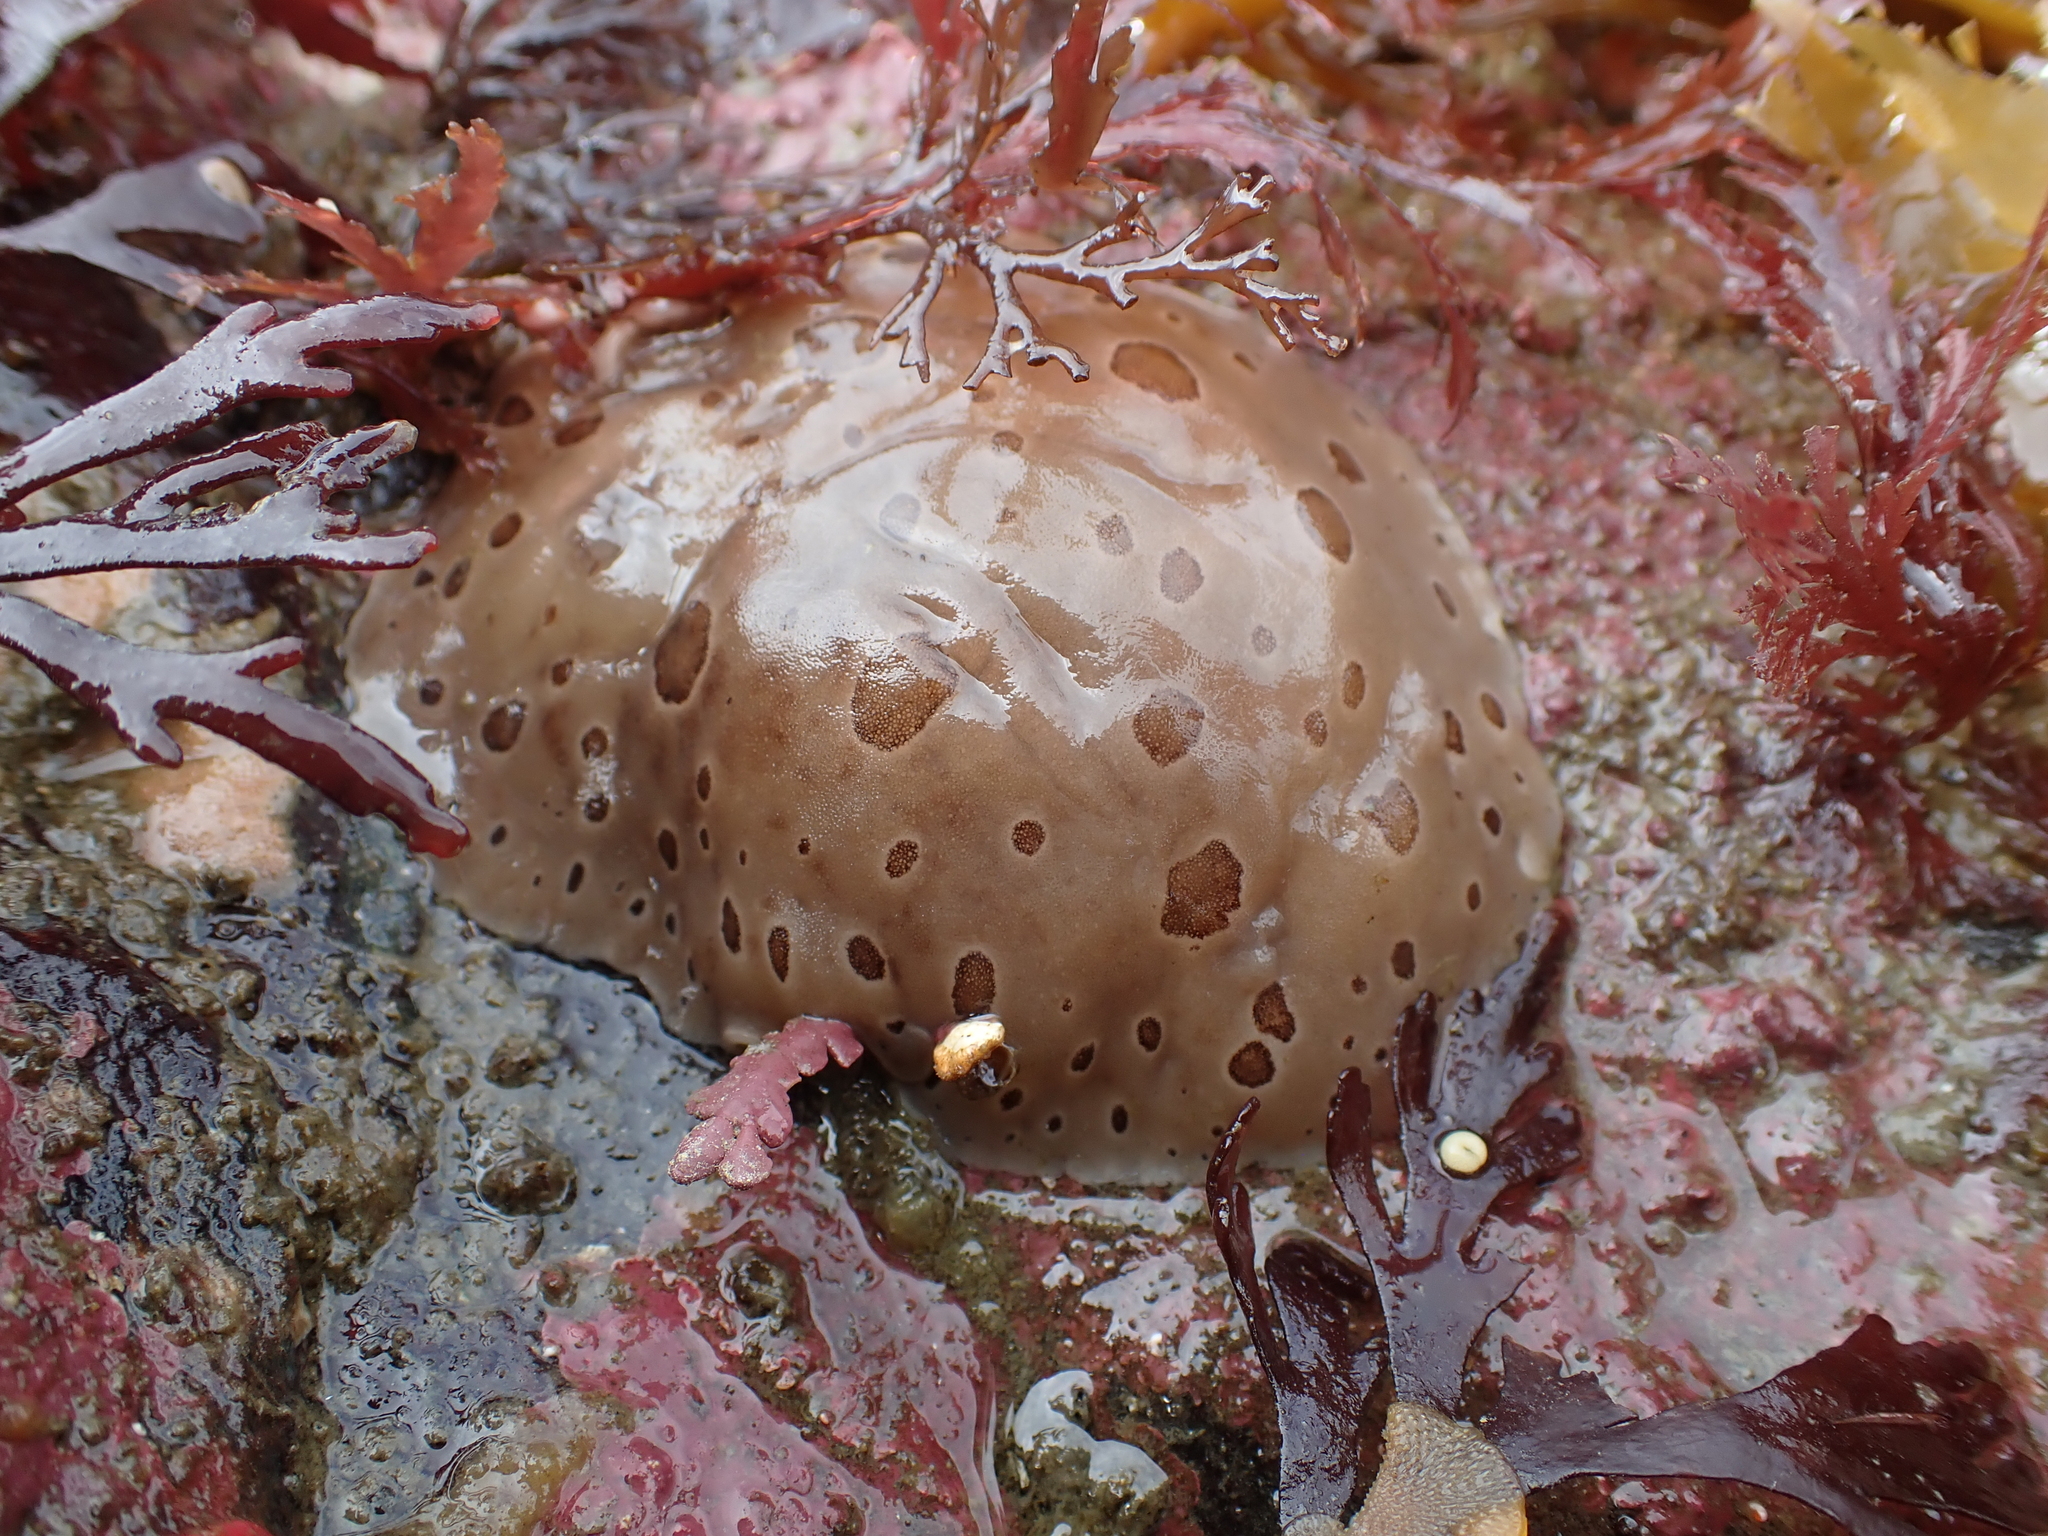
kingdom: Animalia
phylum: Mollusca
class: Gastropoda
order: Nudibranchia
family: Discodorididae
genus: Diaulula
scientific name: Diaulula odonoghuei
